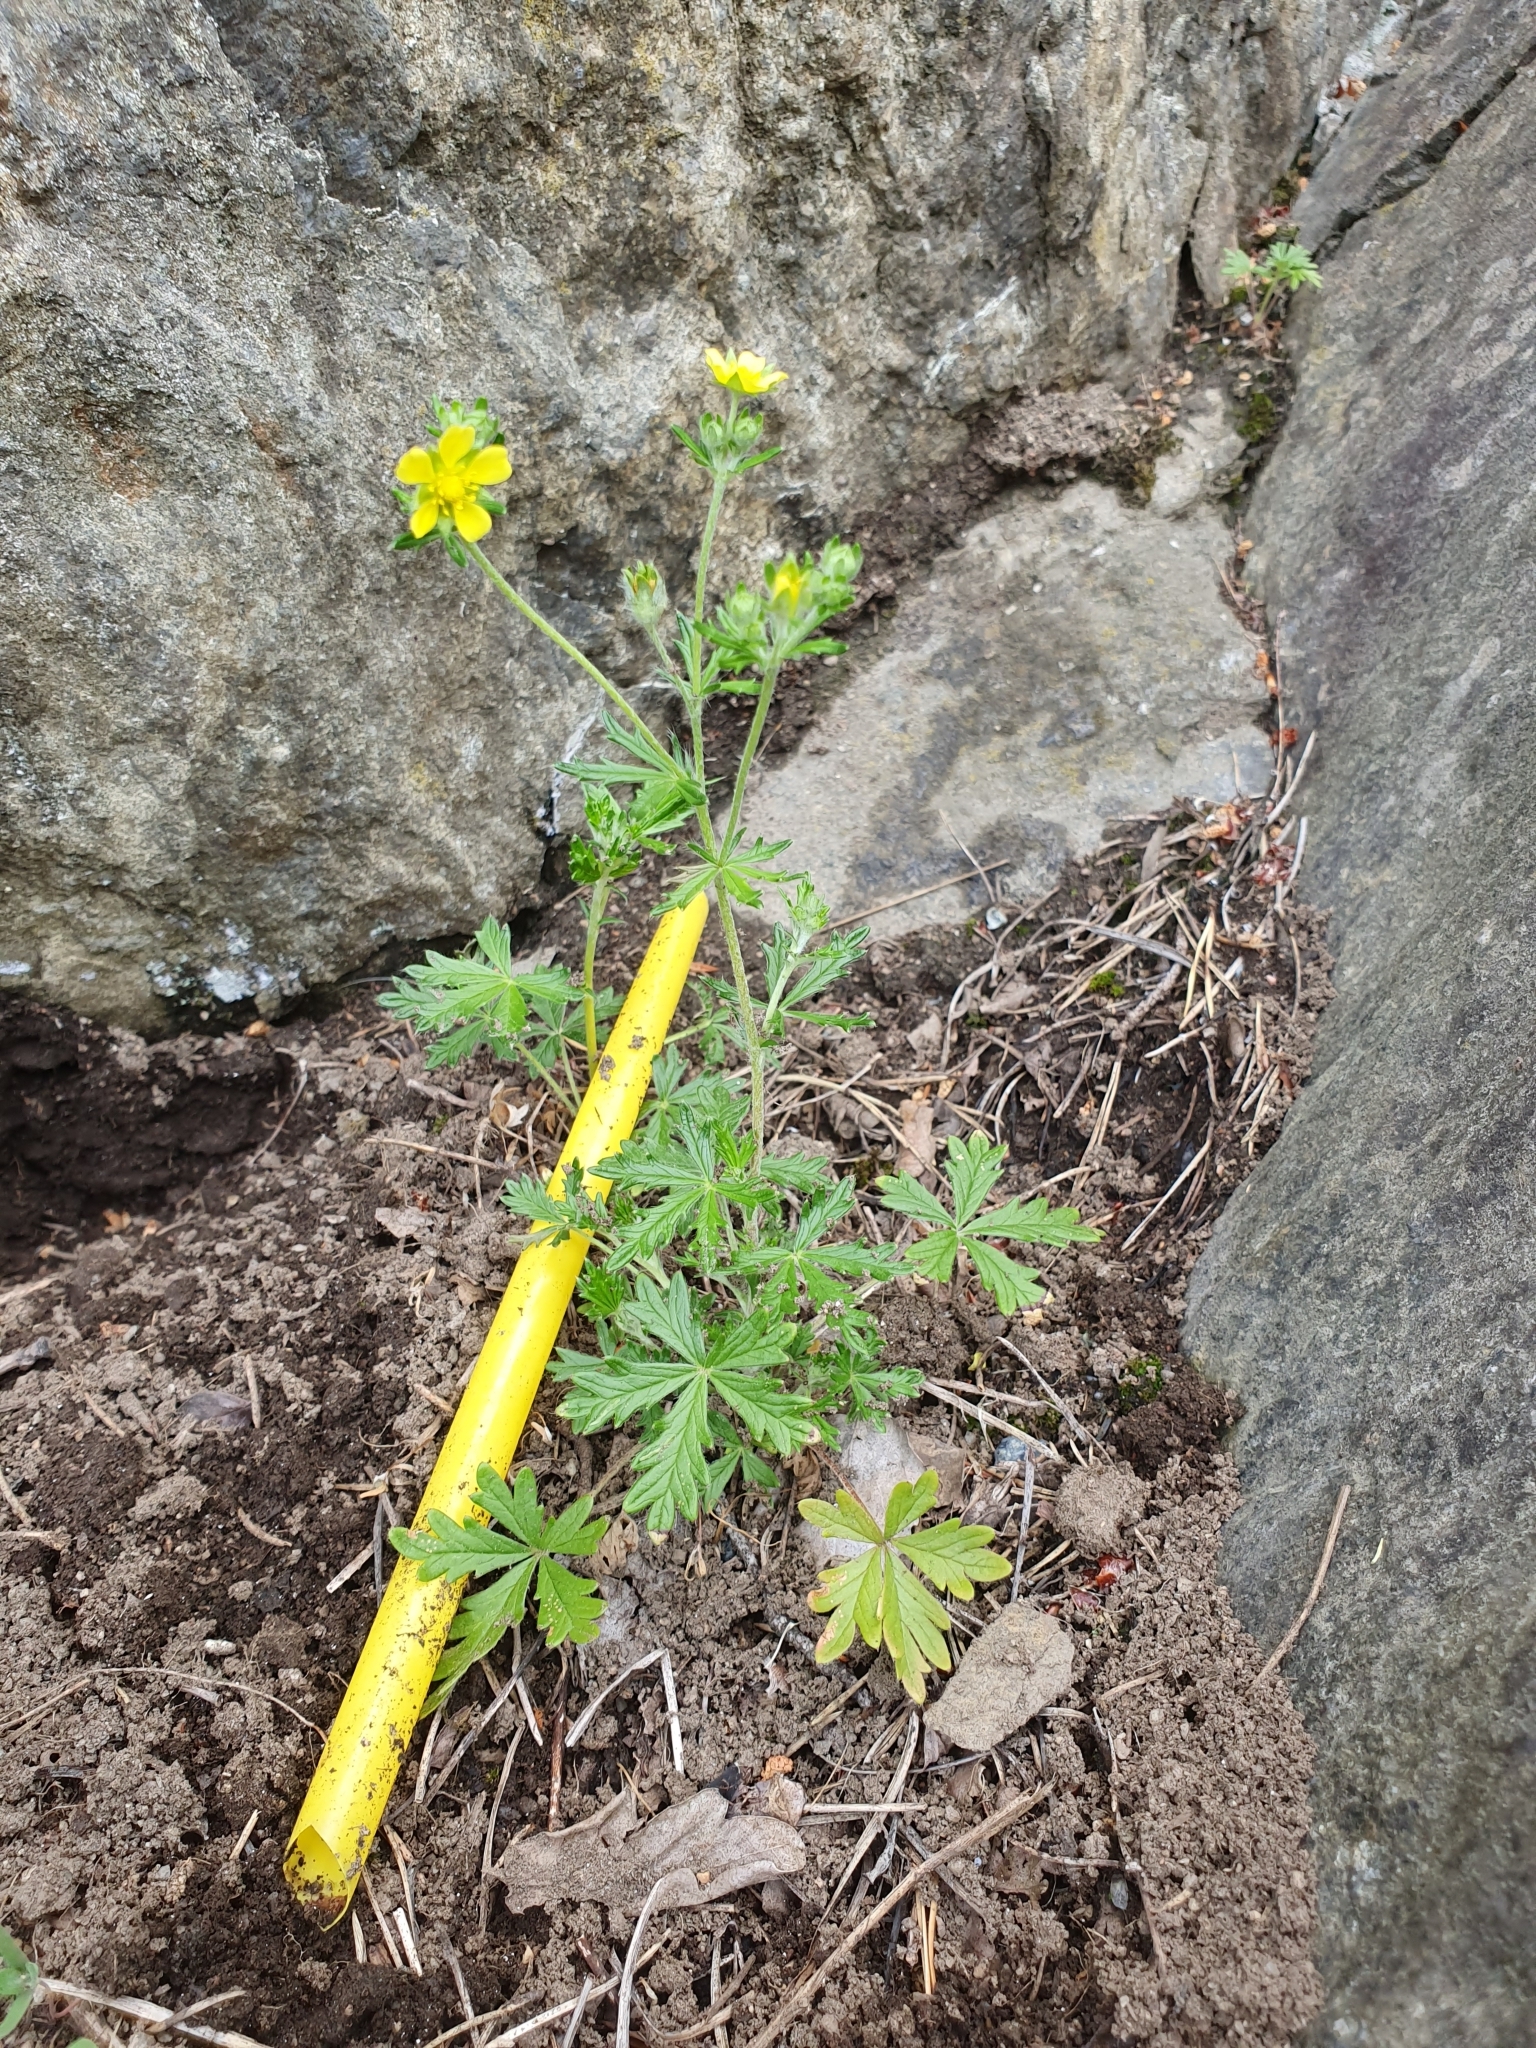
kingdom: Plantae
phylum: Tracheophyta
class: Magnoliopsida
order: Rosales
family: Rosaceae
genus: Potentilla
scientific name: Potentilla argentea
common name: Hoary cinquefoil
